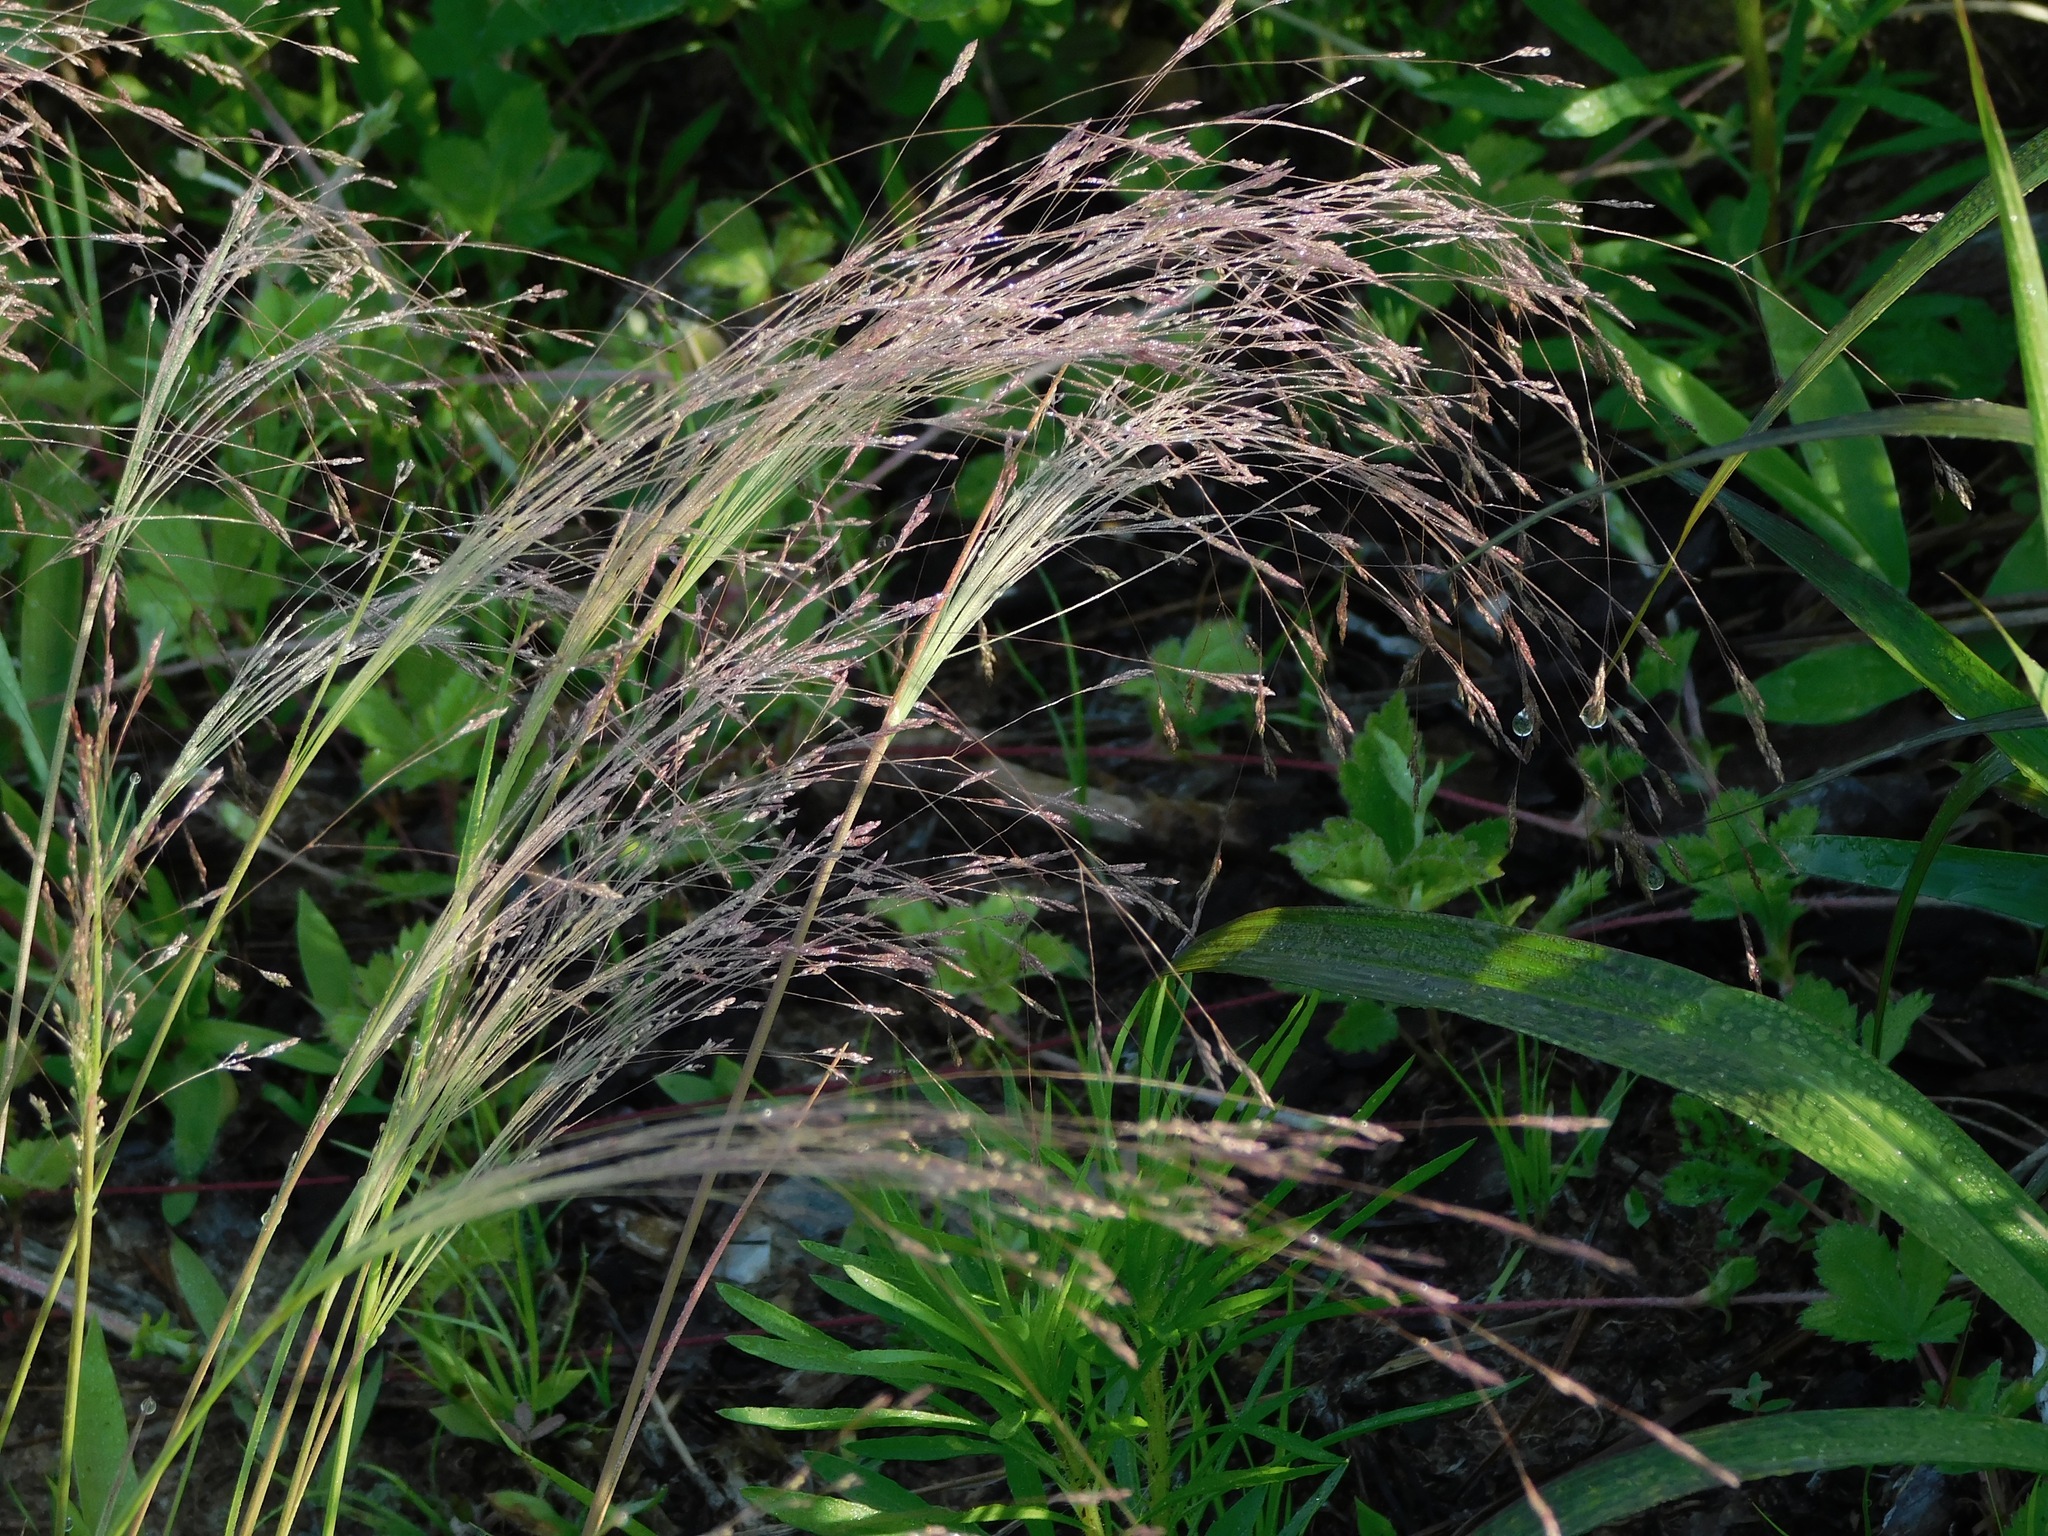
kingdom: Plantae
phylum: Tracheophyta
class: Liliopsida
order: Poales
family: Poaceae
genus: Agrostis
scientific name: Agrostis hyemalis
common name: Small bent
